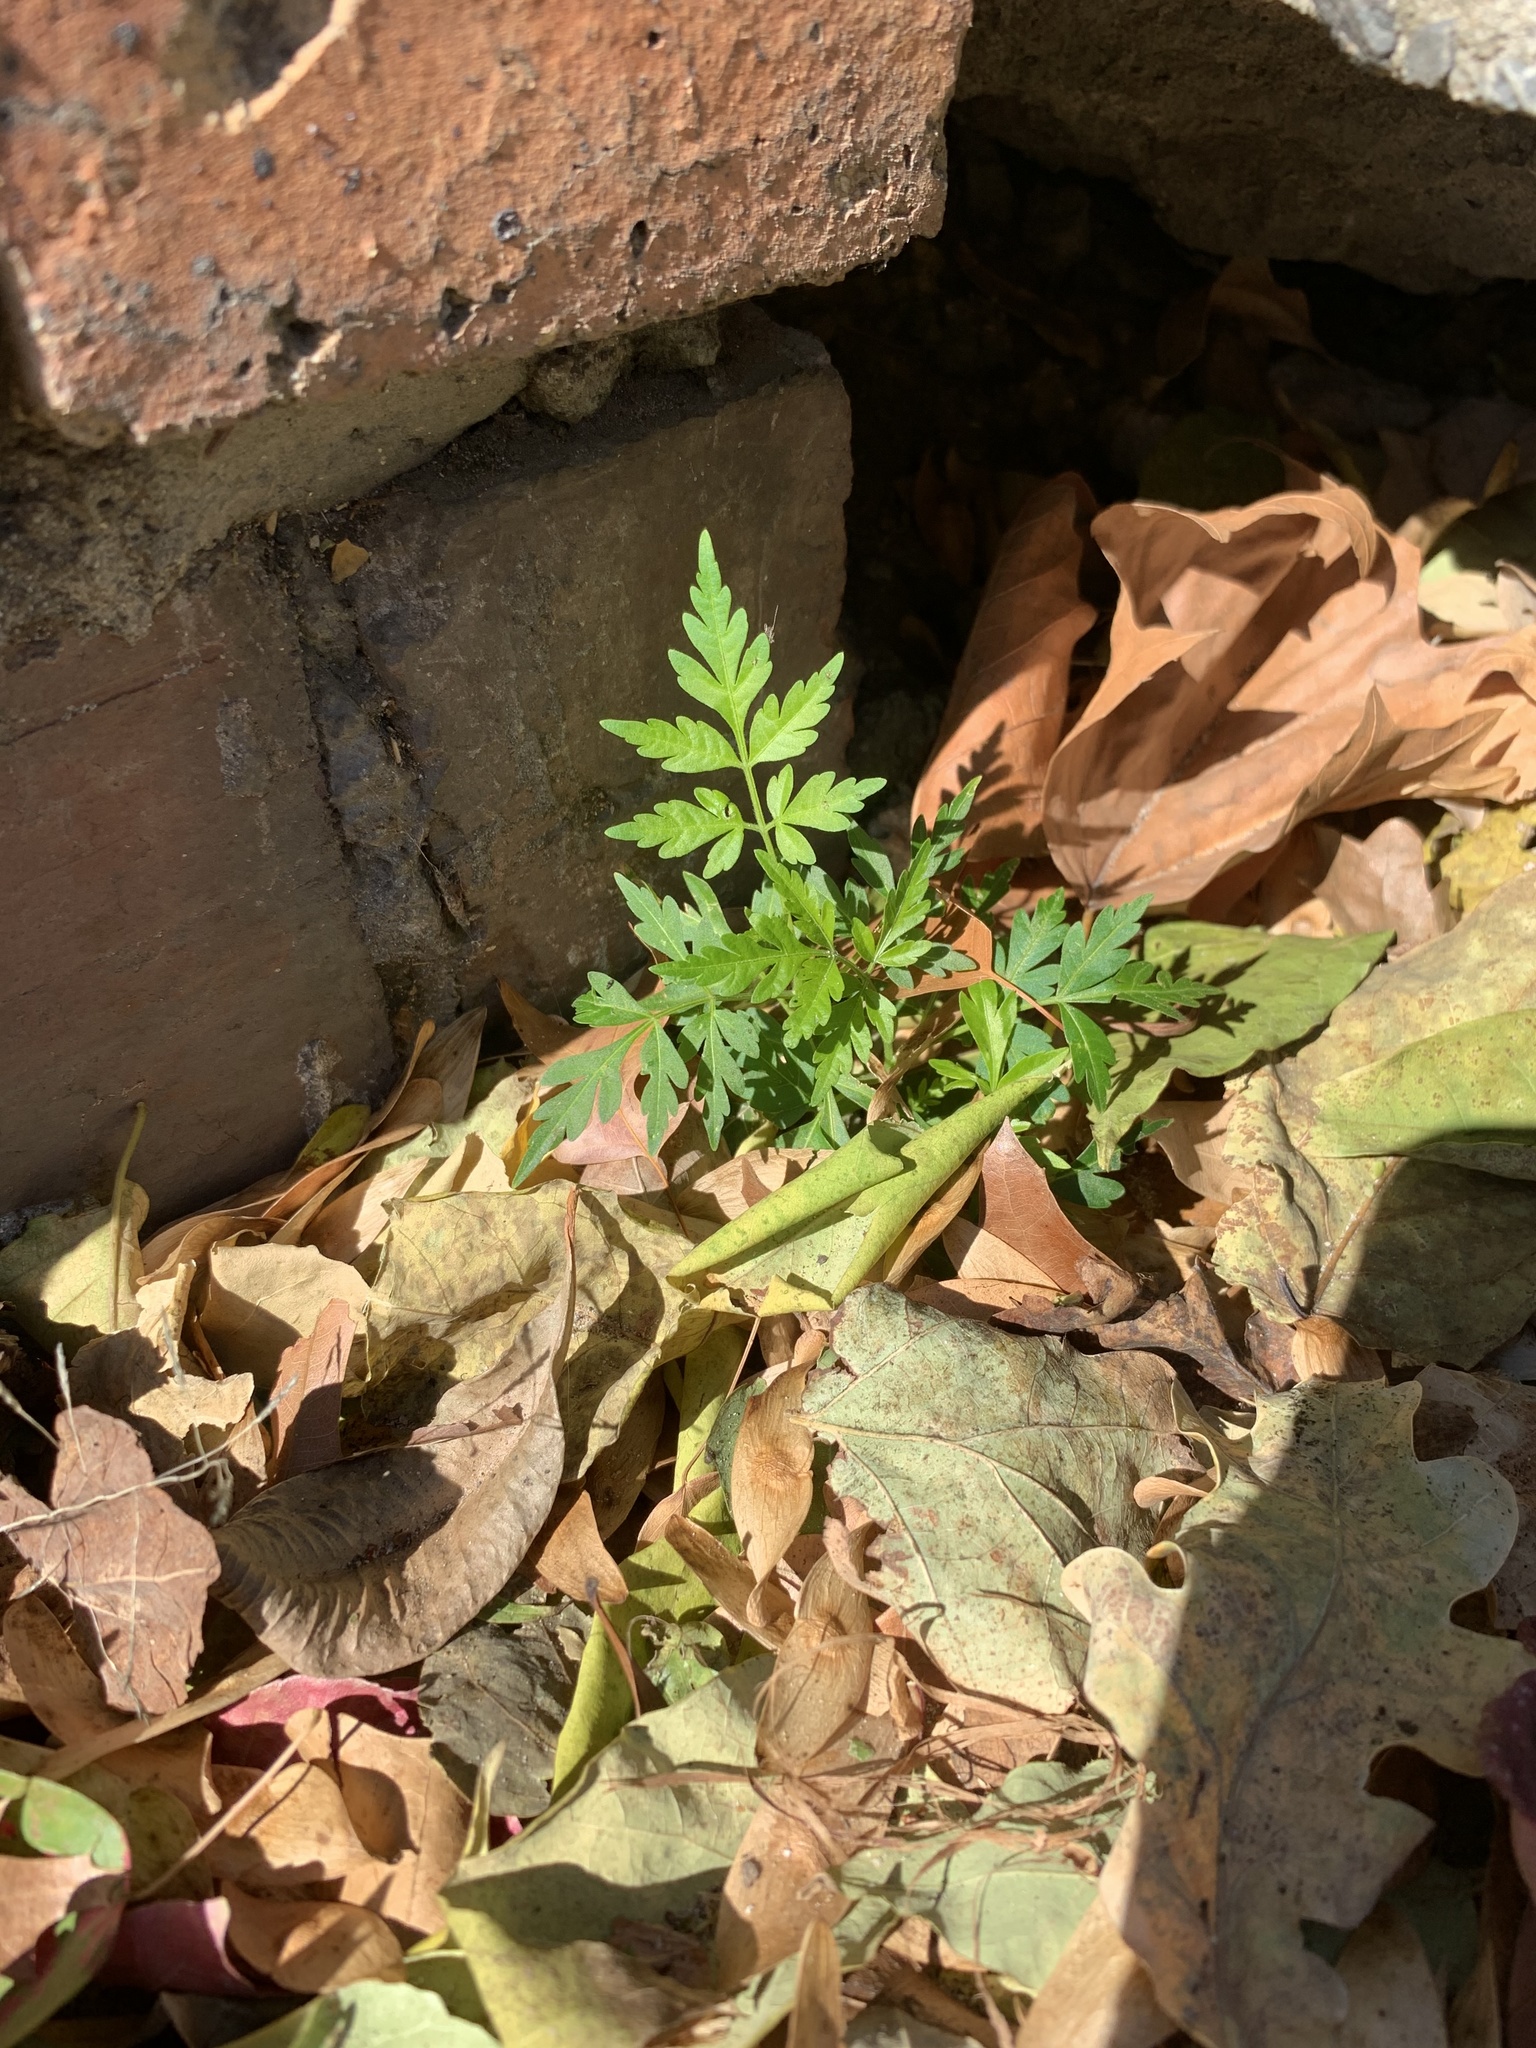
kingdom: Plantae
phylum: Tracheophyta
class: Magnoliopsida
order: Sapindales
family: Meliaceae
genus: Melia
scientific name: Melia azedarach
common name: Chinaberrytree
